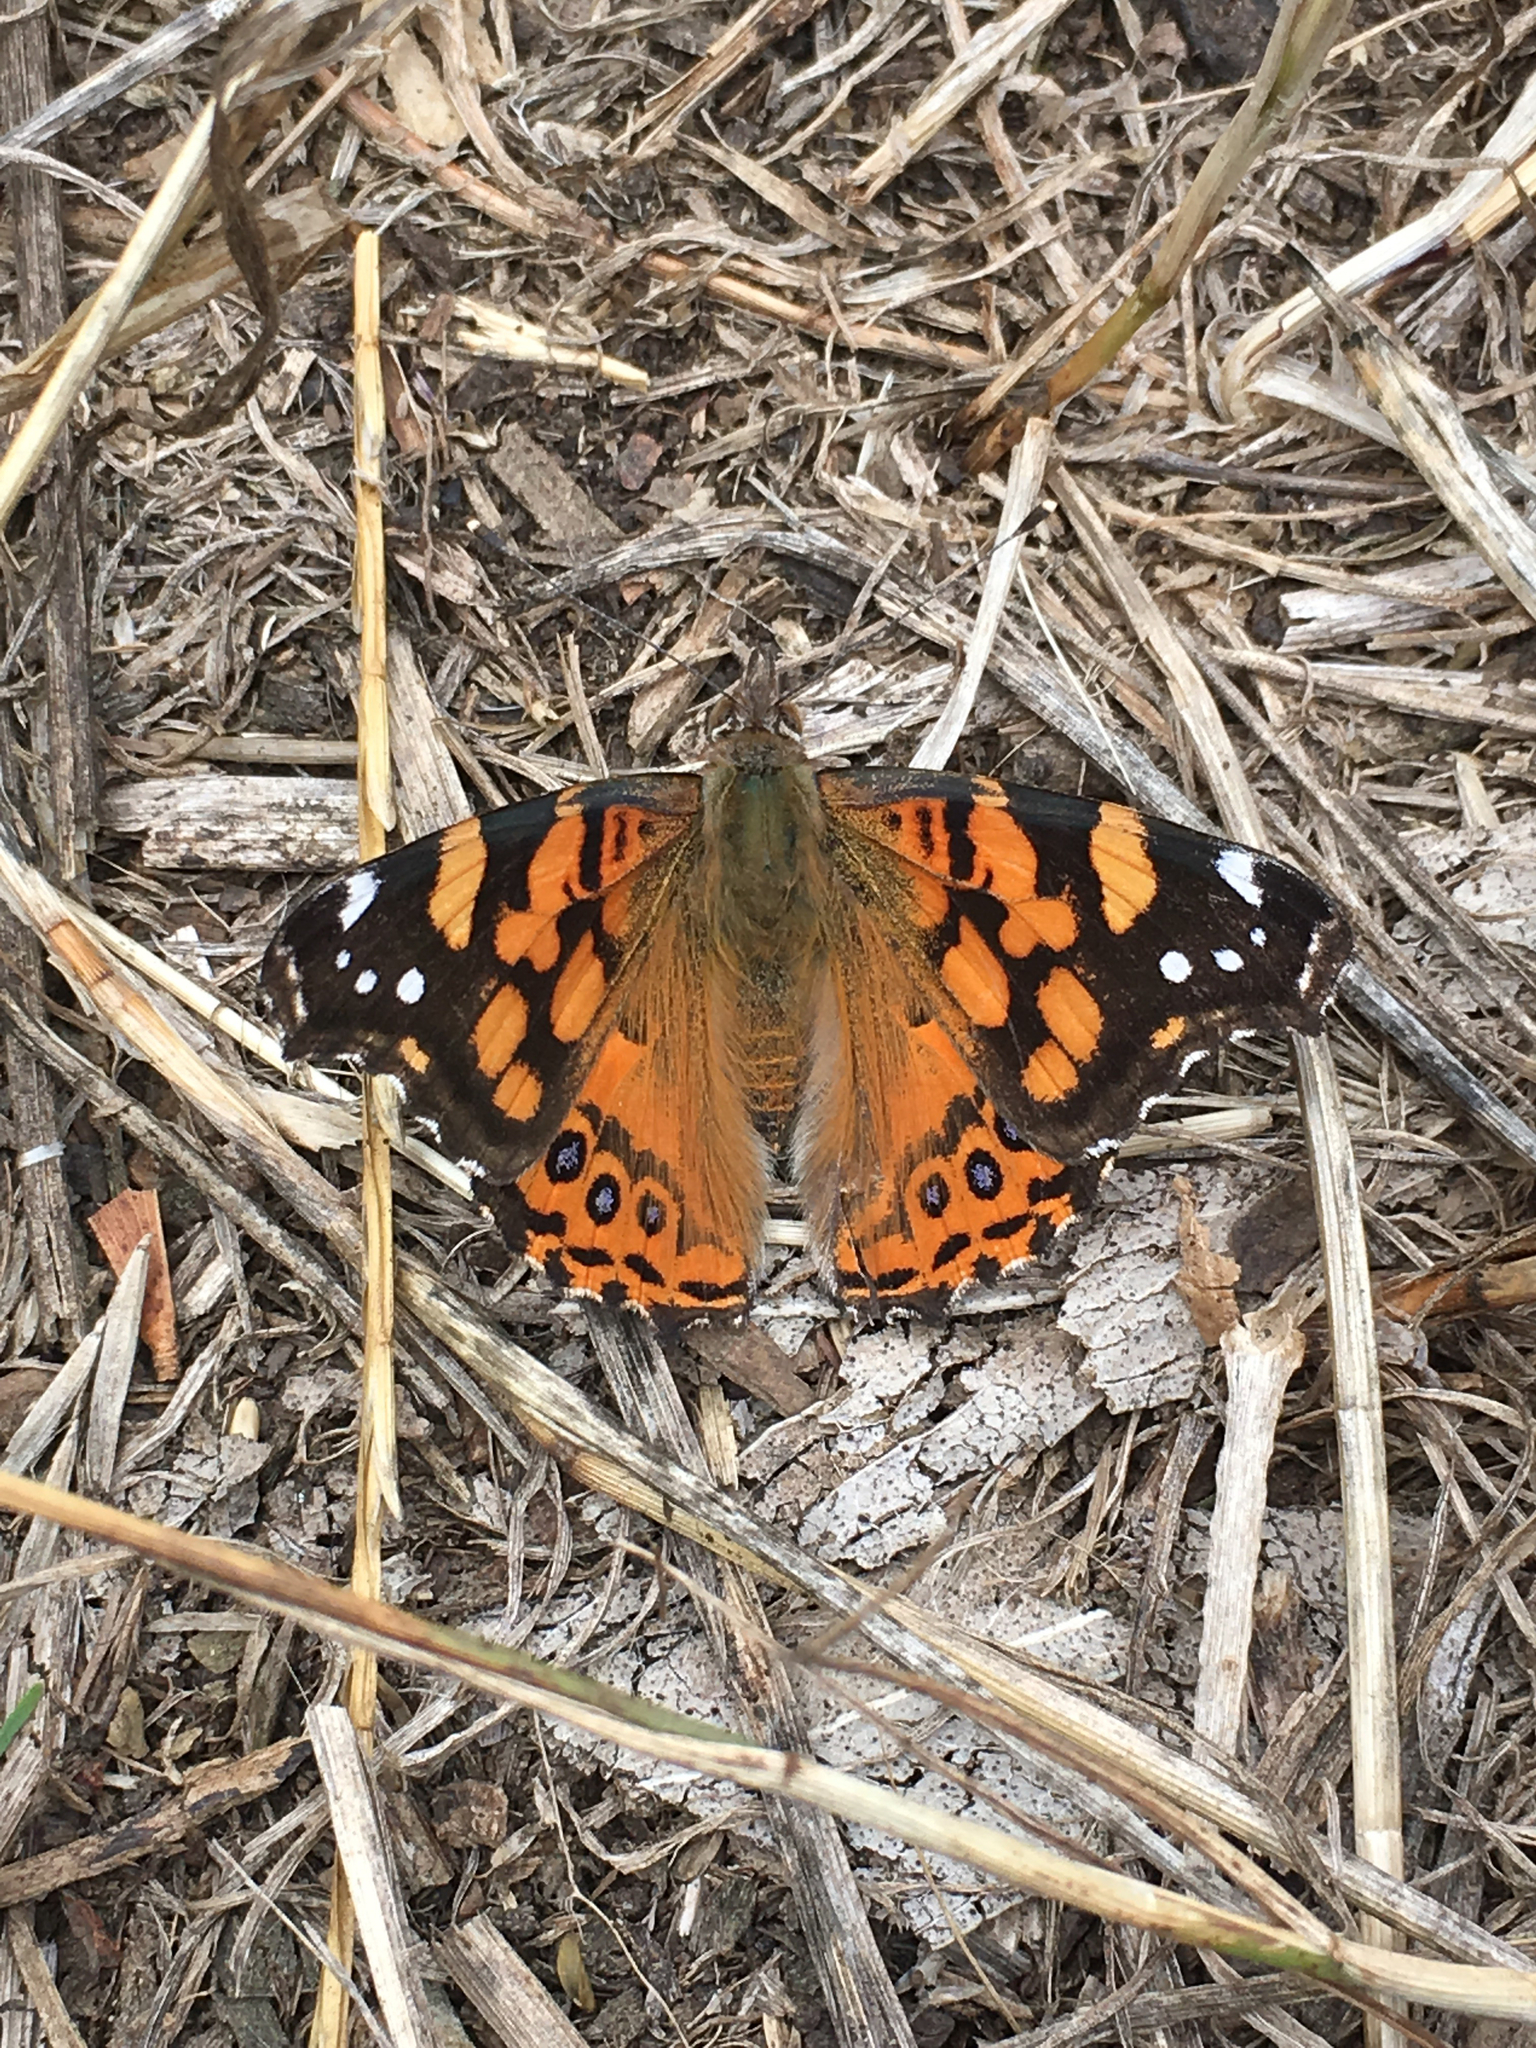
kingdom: Animalia
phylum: Arthropoda
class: Insecta
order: Lepidoptera
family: Nymphalidae
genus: Vanessa
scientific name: Vanessa annabella
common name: West coast lady
